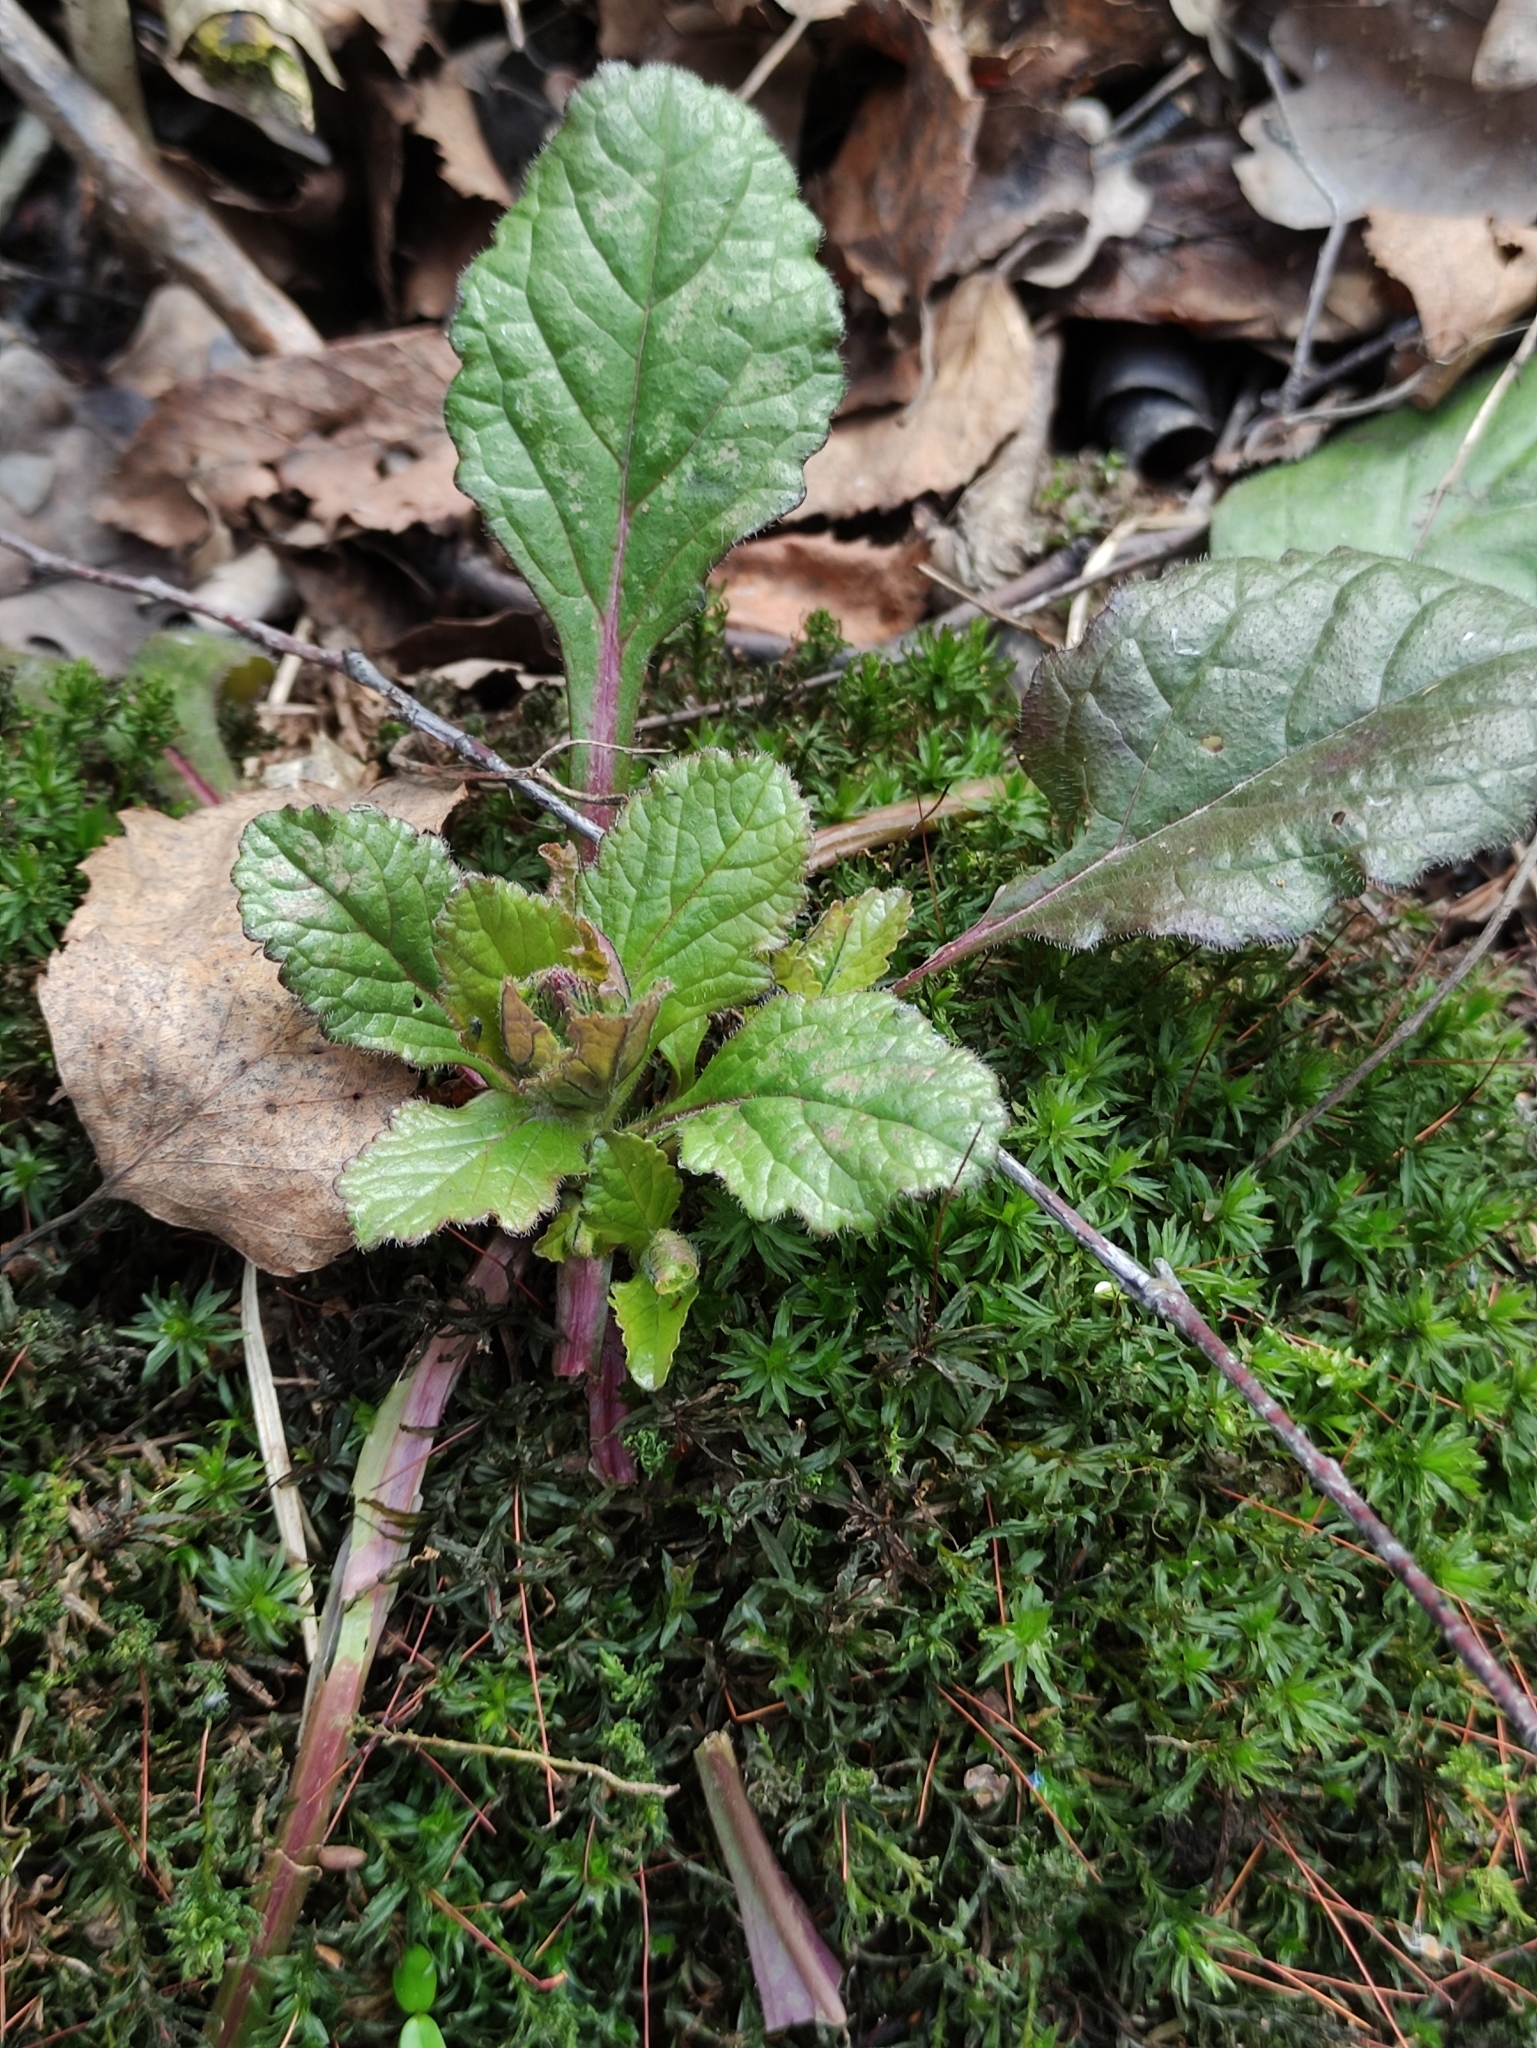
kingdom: Plantae
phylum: Tracheophyta
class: Magnoliopsida
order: Lamiales
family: Lamiaceae
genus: Ajuga
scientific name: Ajuga reptans
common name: Bugle
